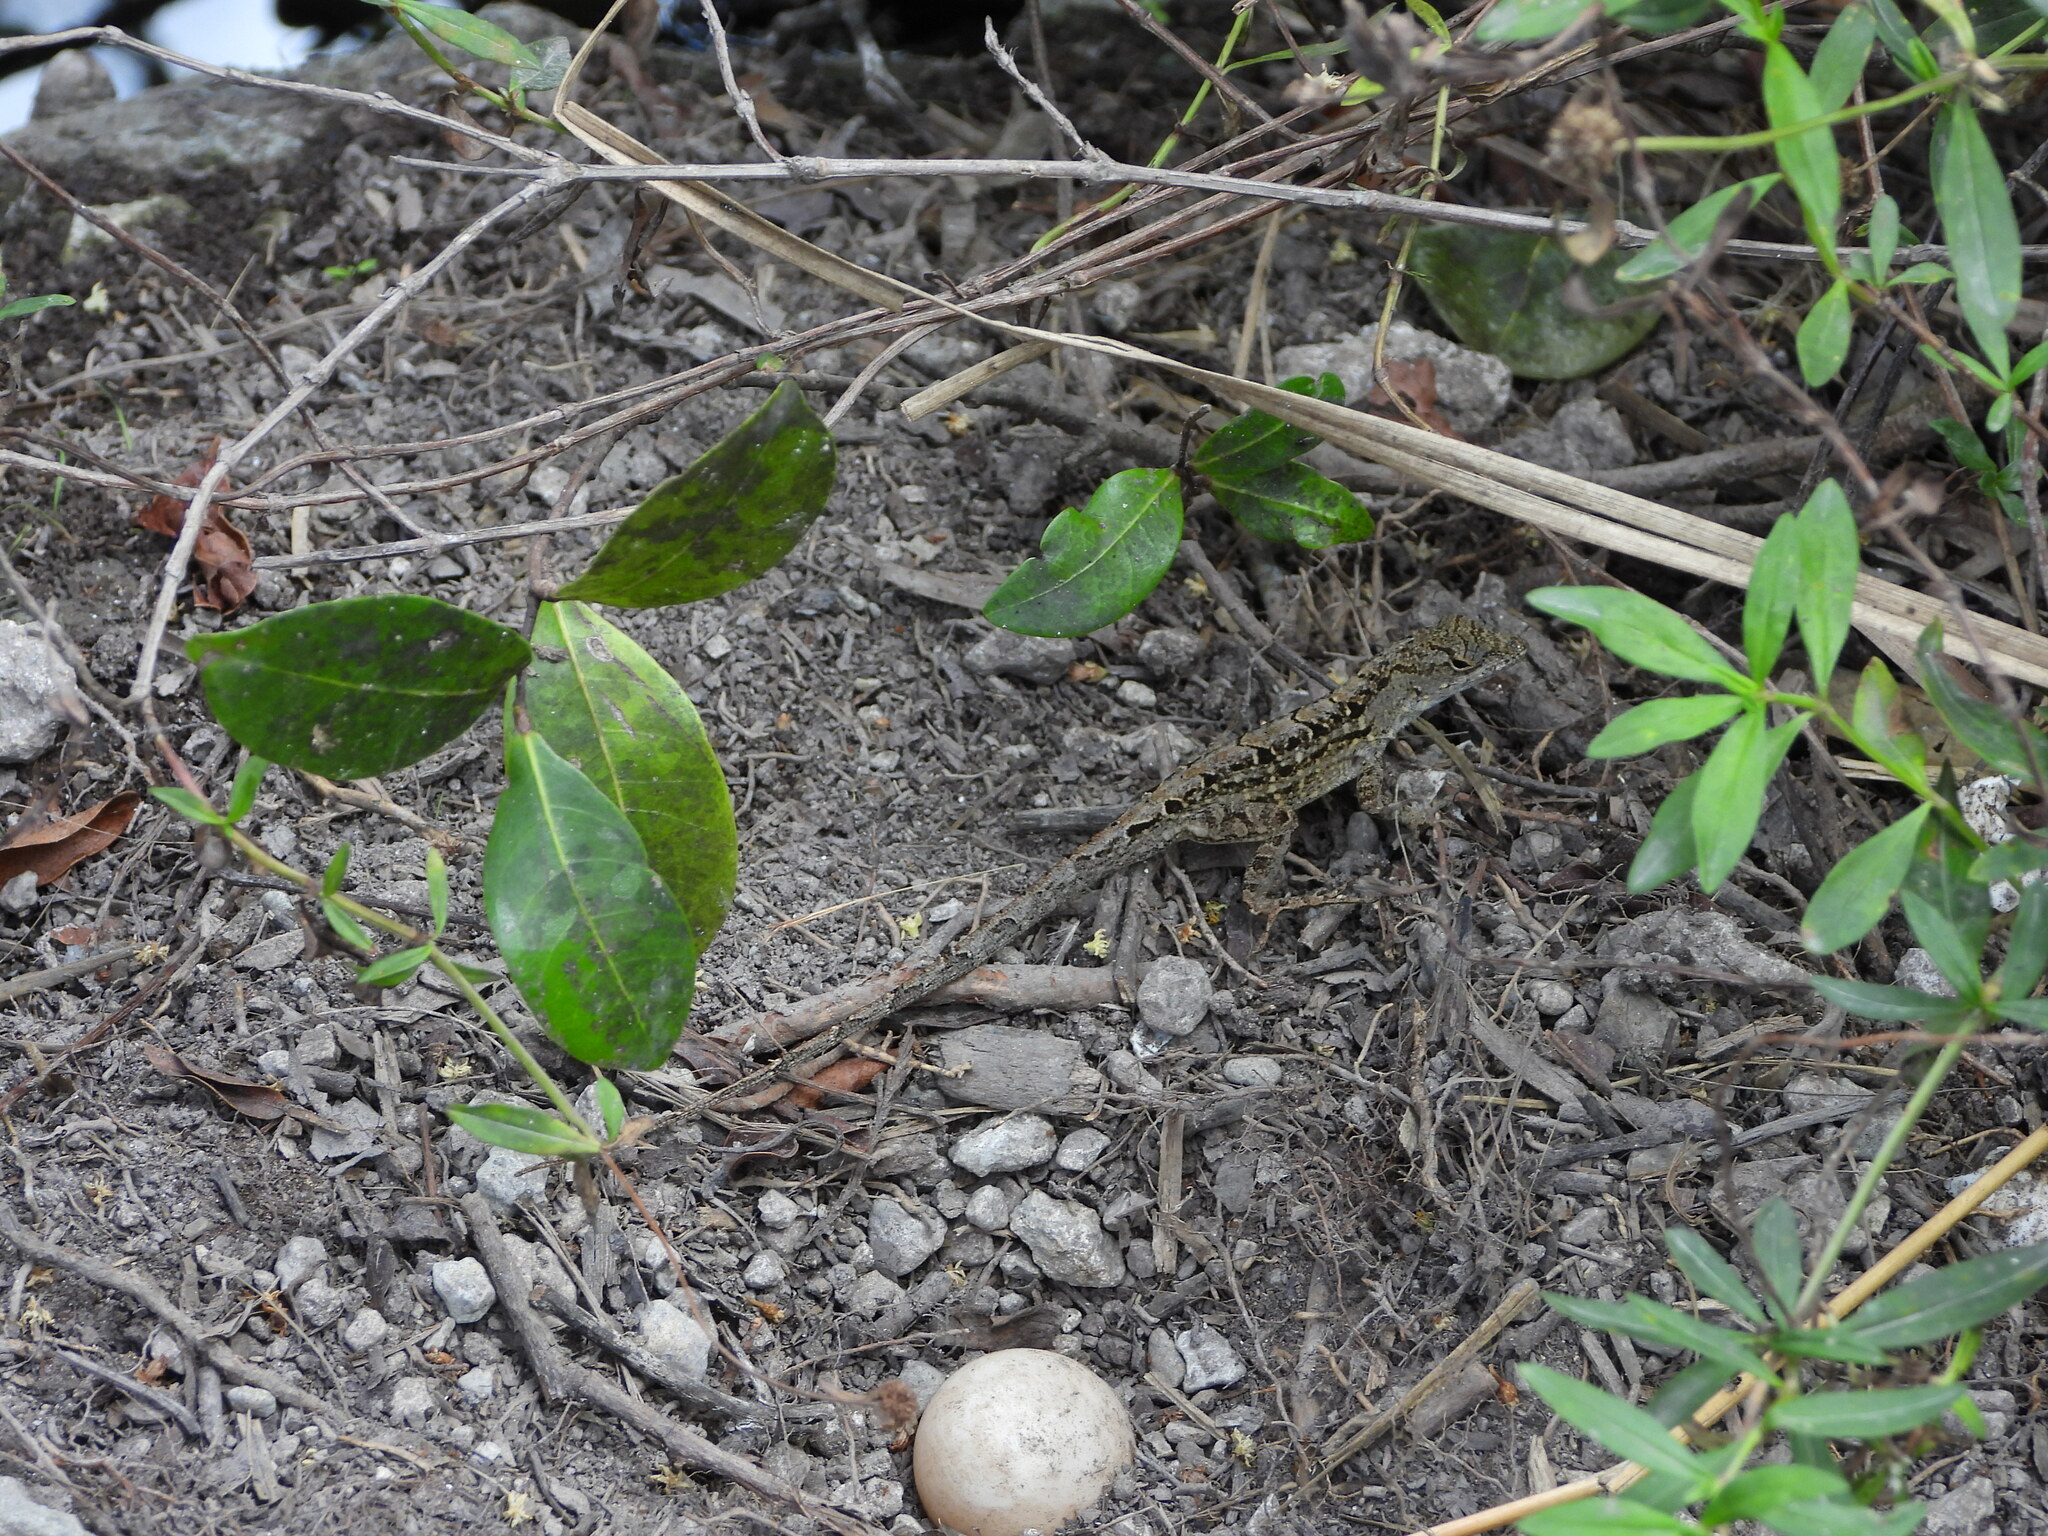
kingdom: Animalia
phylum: Chordata
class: Squamata
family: Dactyloidae
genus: Anolis
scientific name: Anolis sagrei
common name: Brown anole
